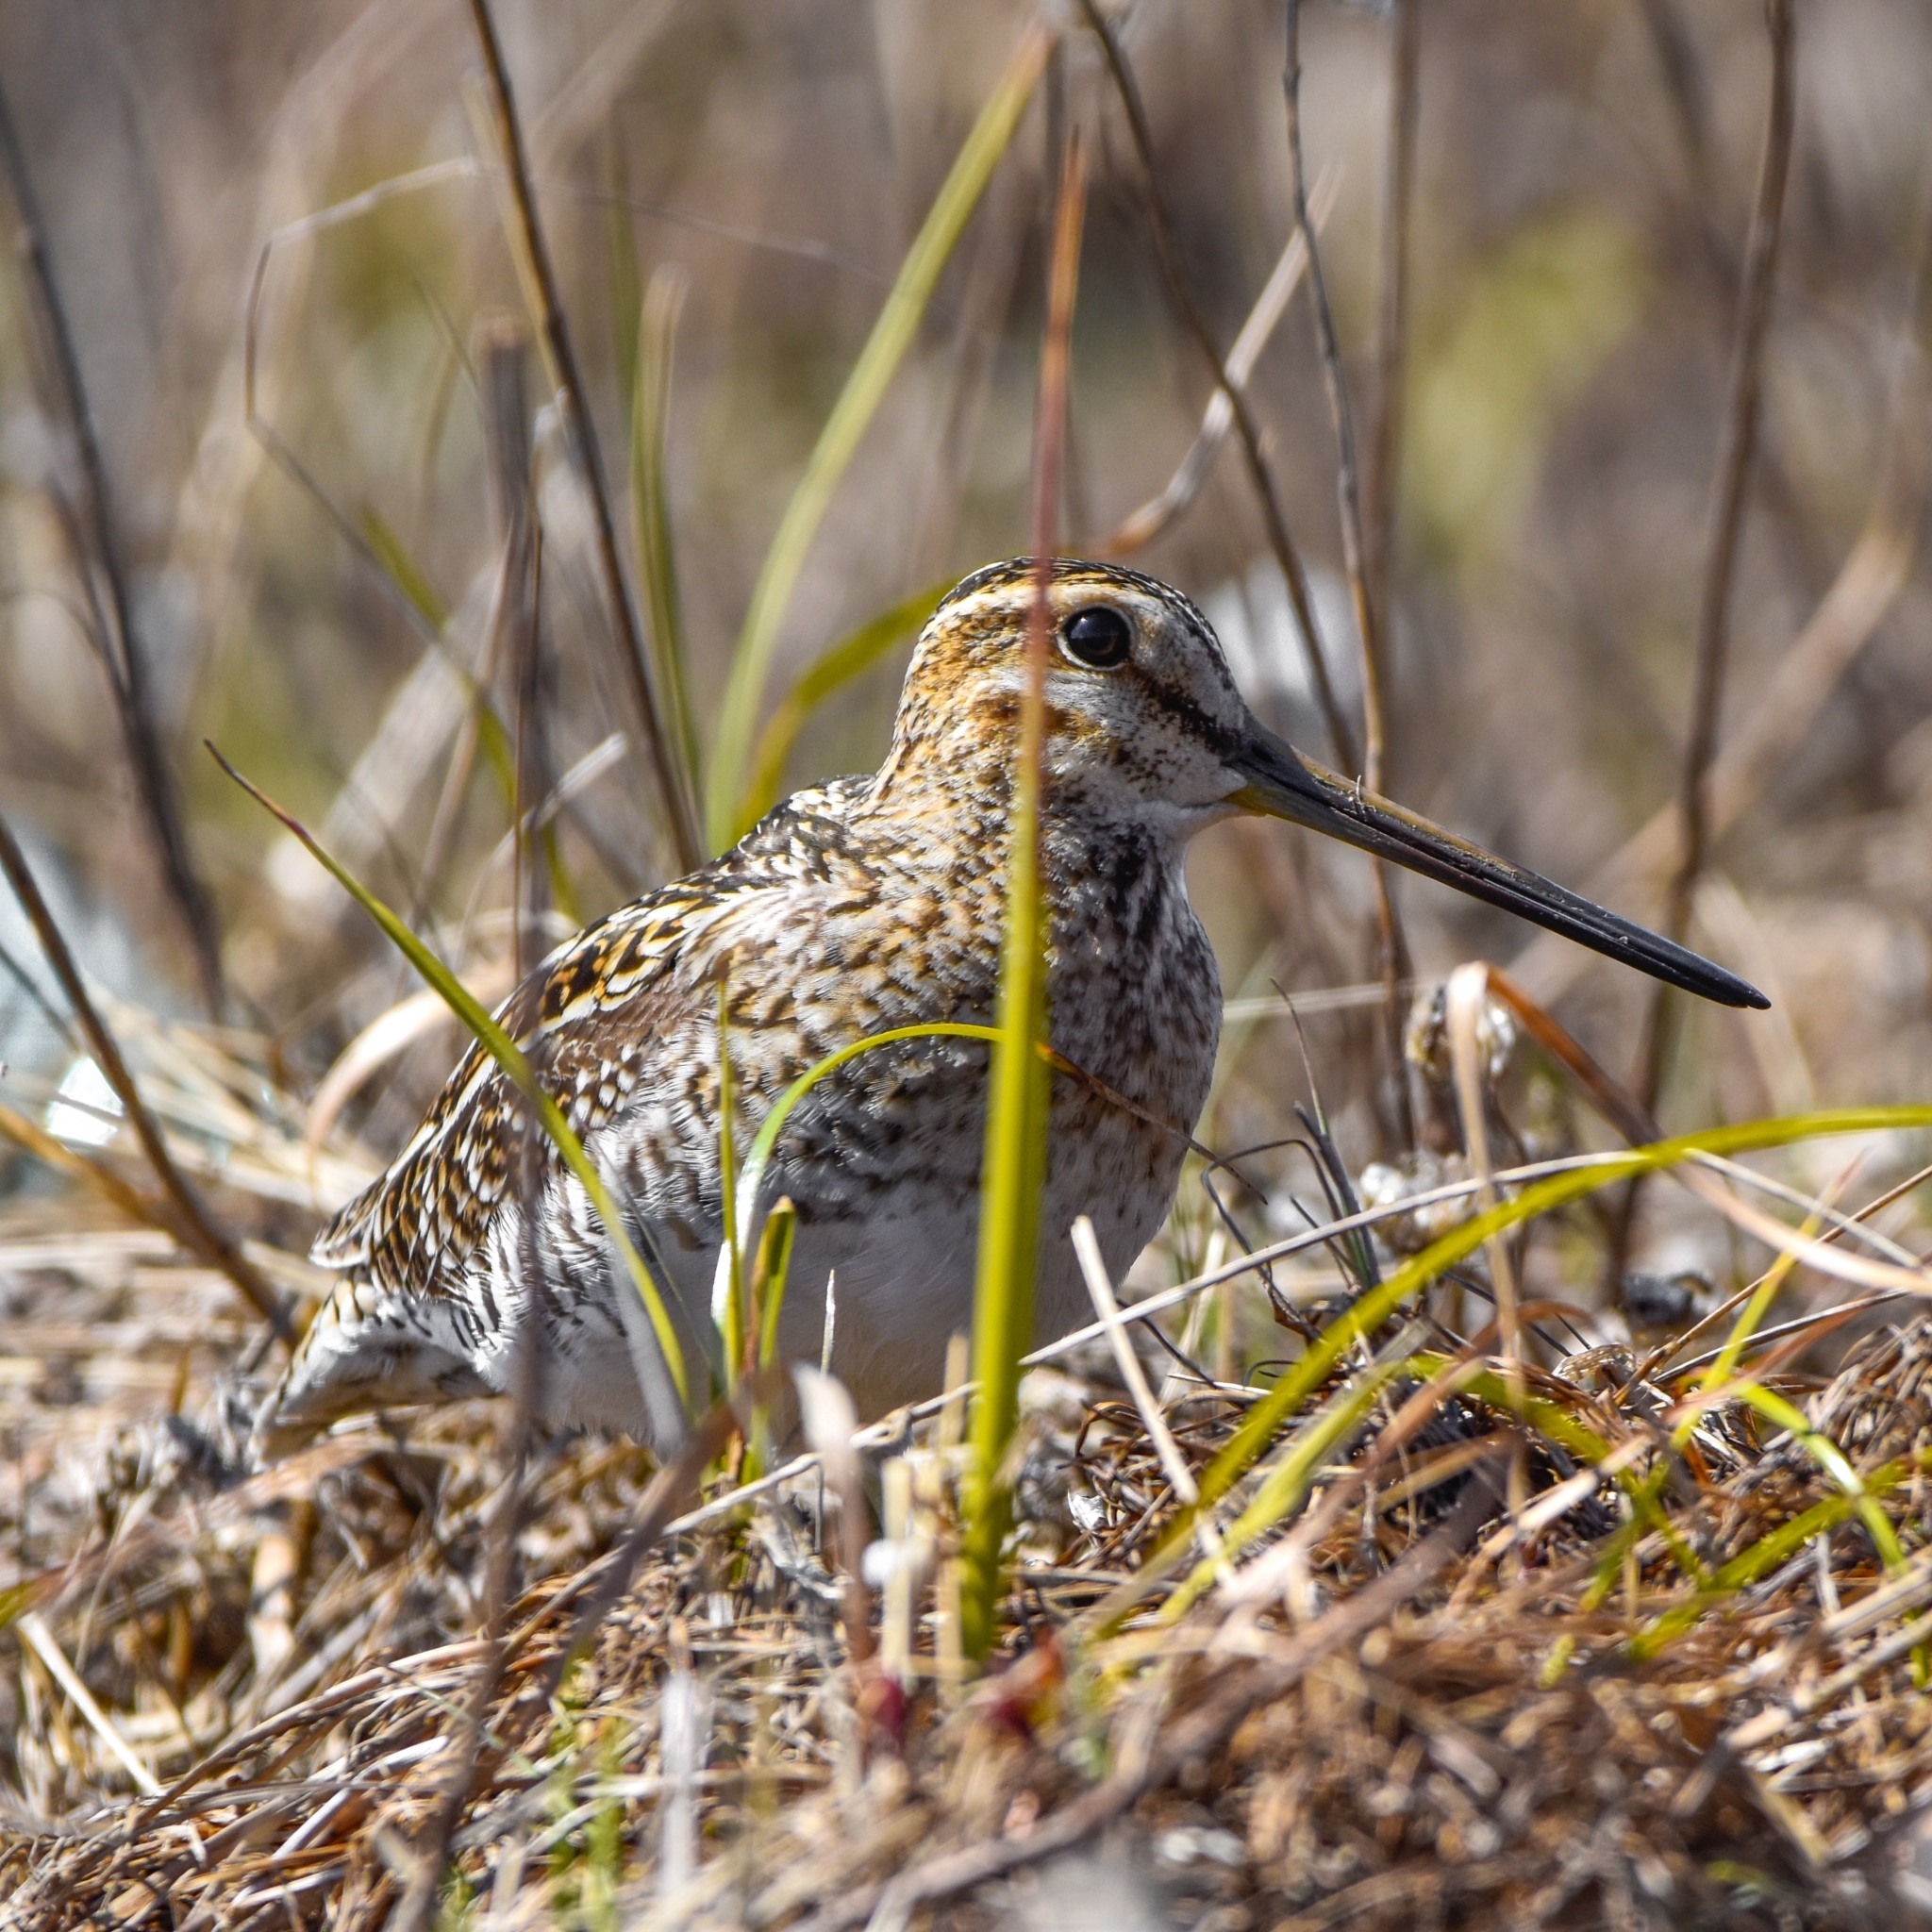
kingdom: Animalia
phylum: Chordata
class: Aves
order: Charadriiformes
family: Scolopacidae
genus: Gallinago
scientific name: Gallinago gallinago
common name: Common snipe
